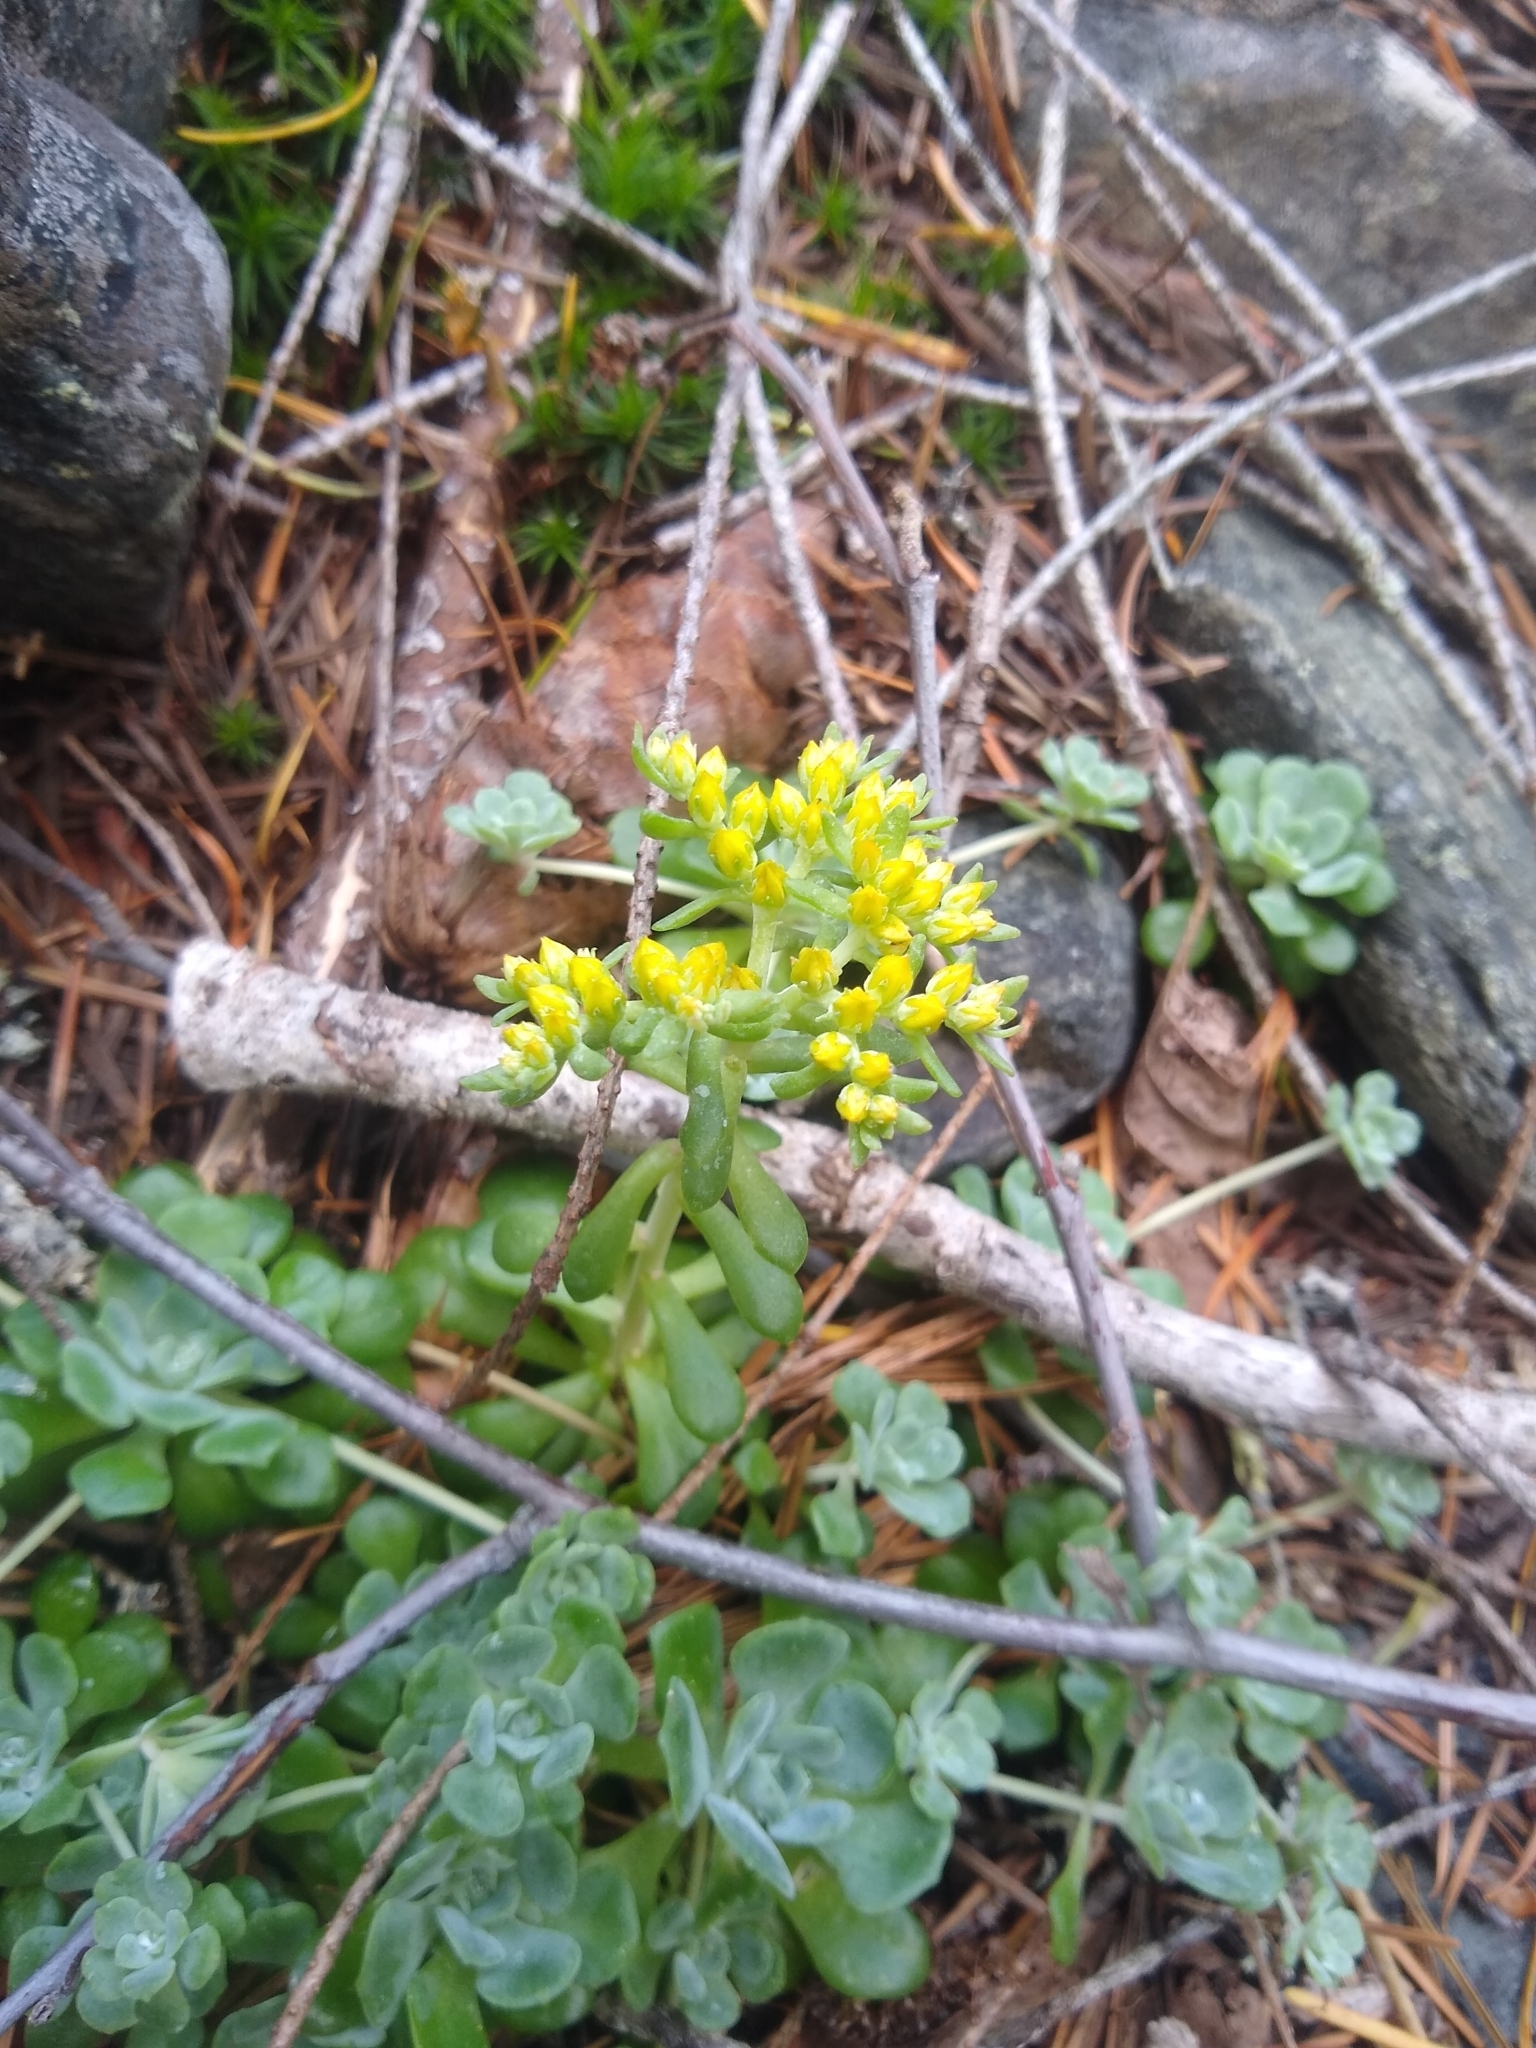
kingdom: Plantae
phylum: Tracheophyta
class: Magnoliopsida
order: Saxifragales
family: Crassulaceae
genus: Sedum
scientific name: Sedum spathulifolium
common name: Colorado stonecrop
